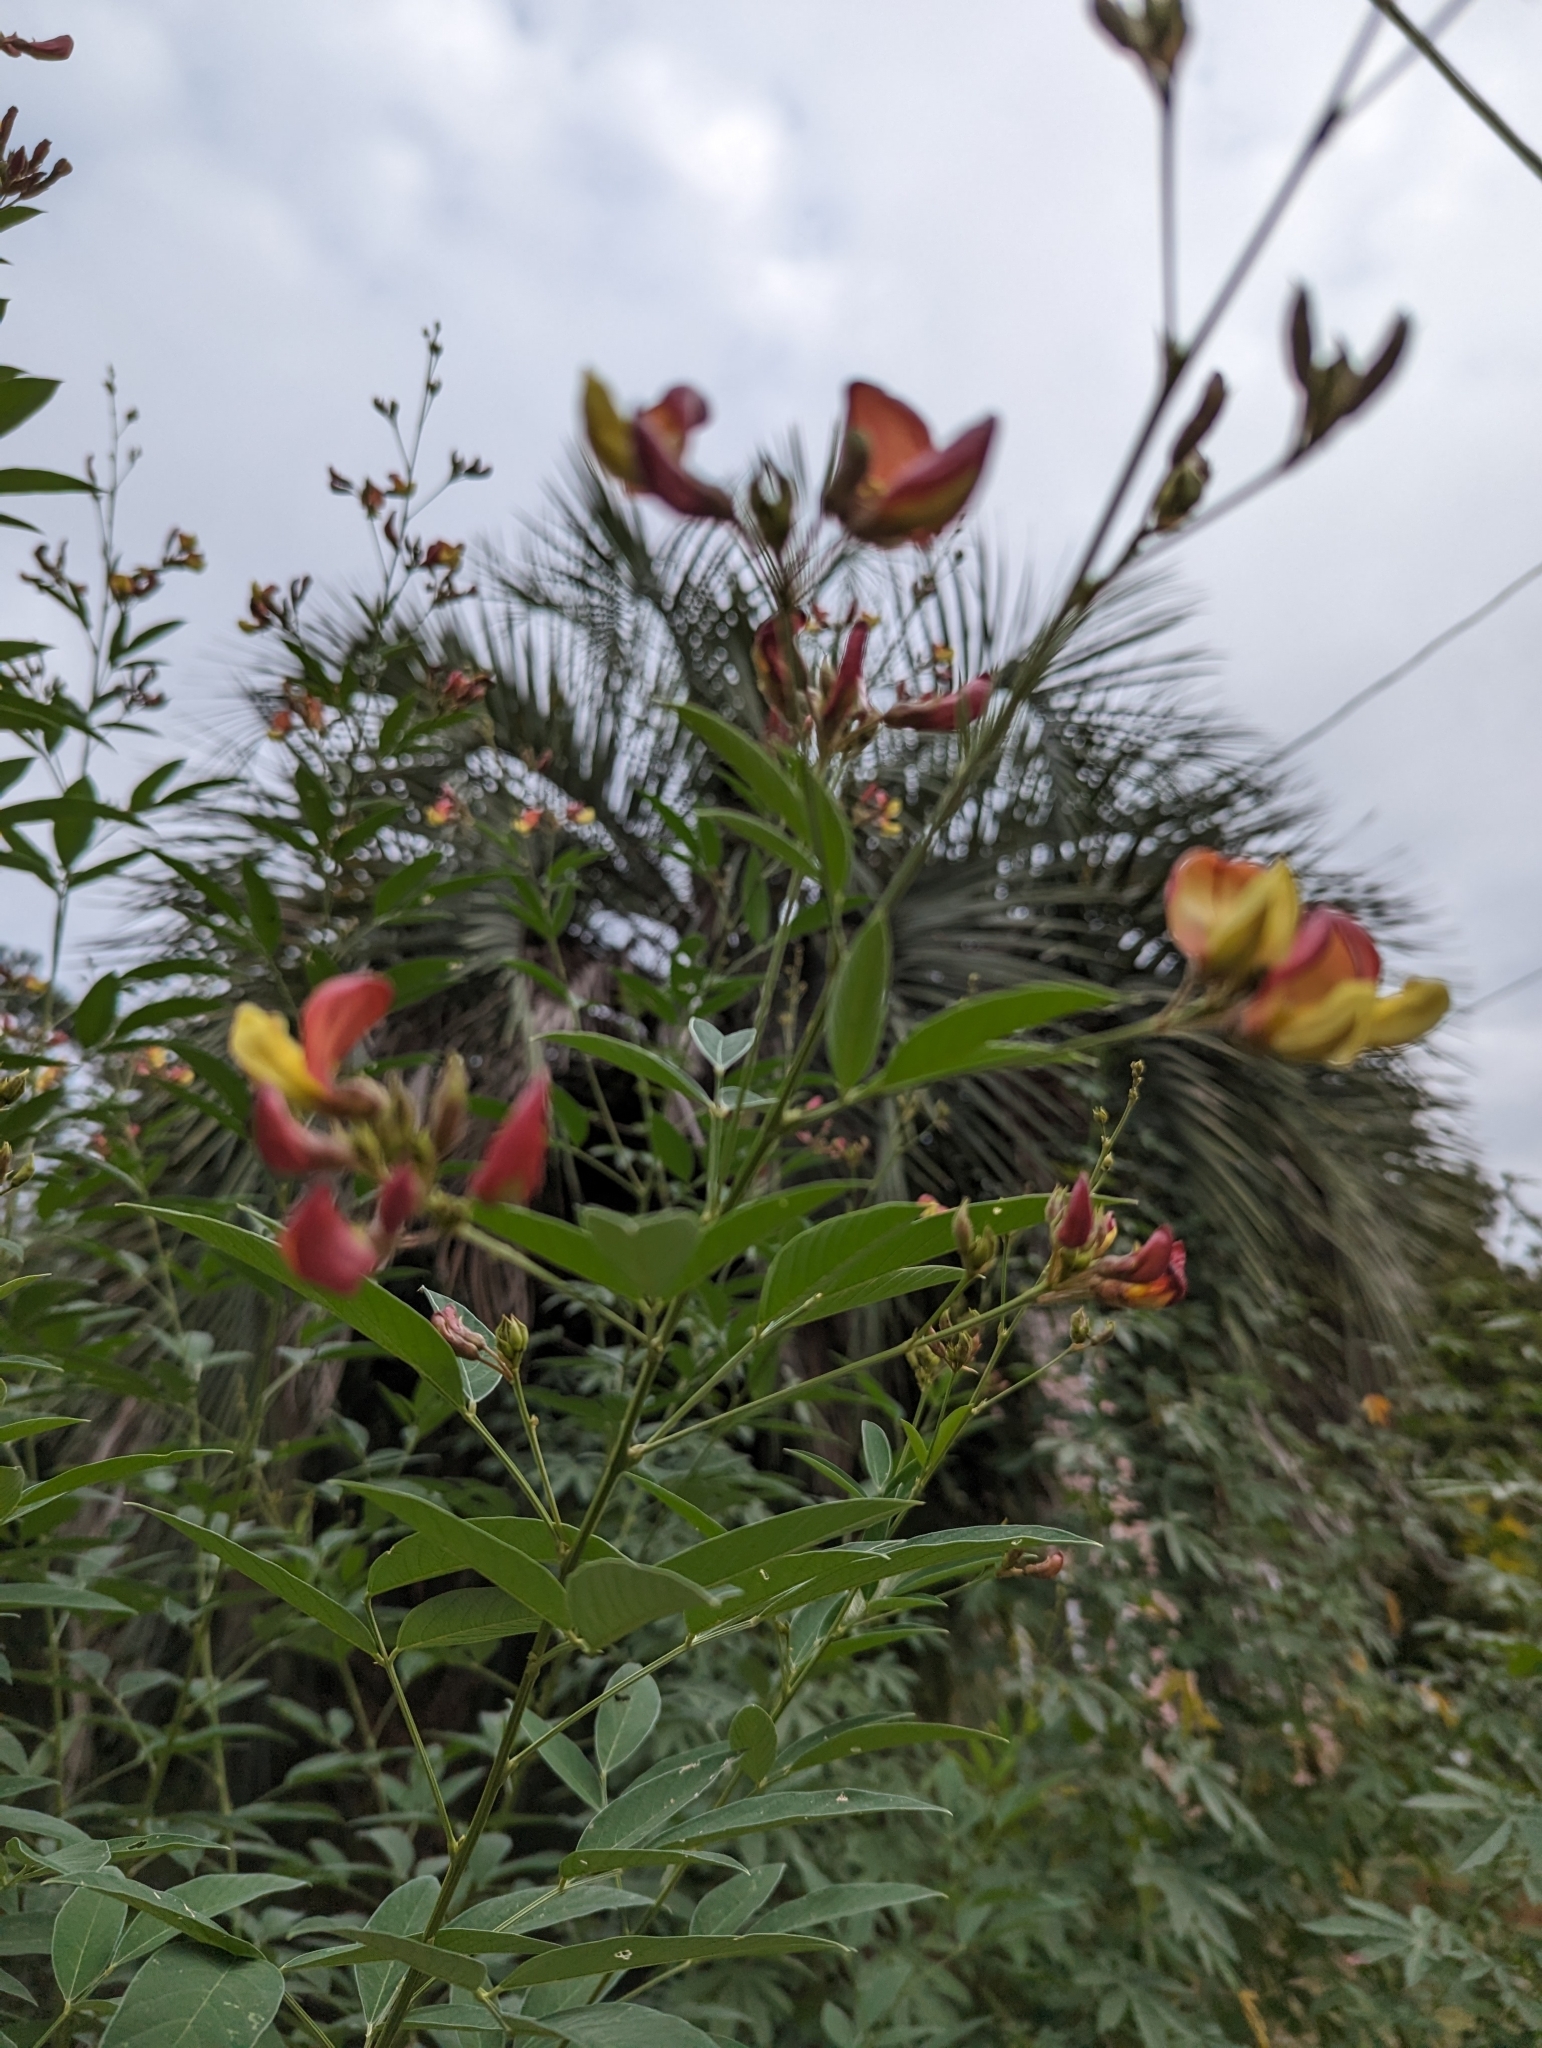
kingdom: Plantae
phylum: Tracheophyta
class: Magnoliopsida
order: Fabales
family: Fabaceae
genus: Cajanus
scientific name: Cajanus cajan
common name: Pigeonpea
